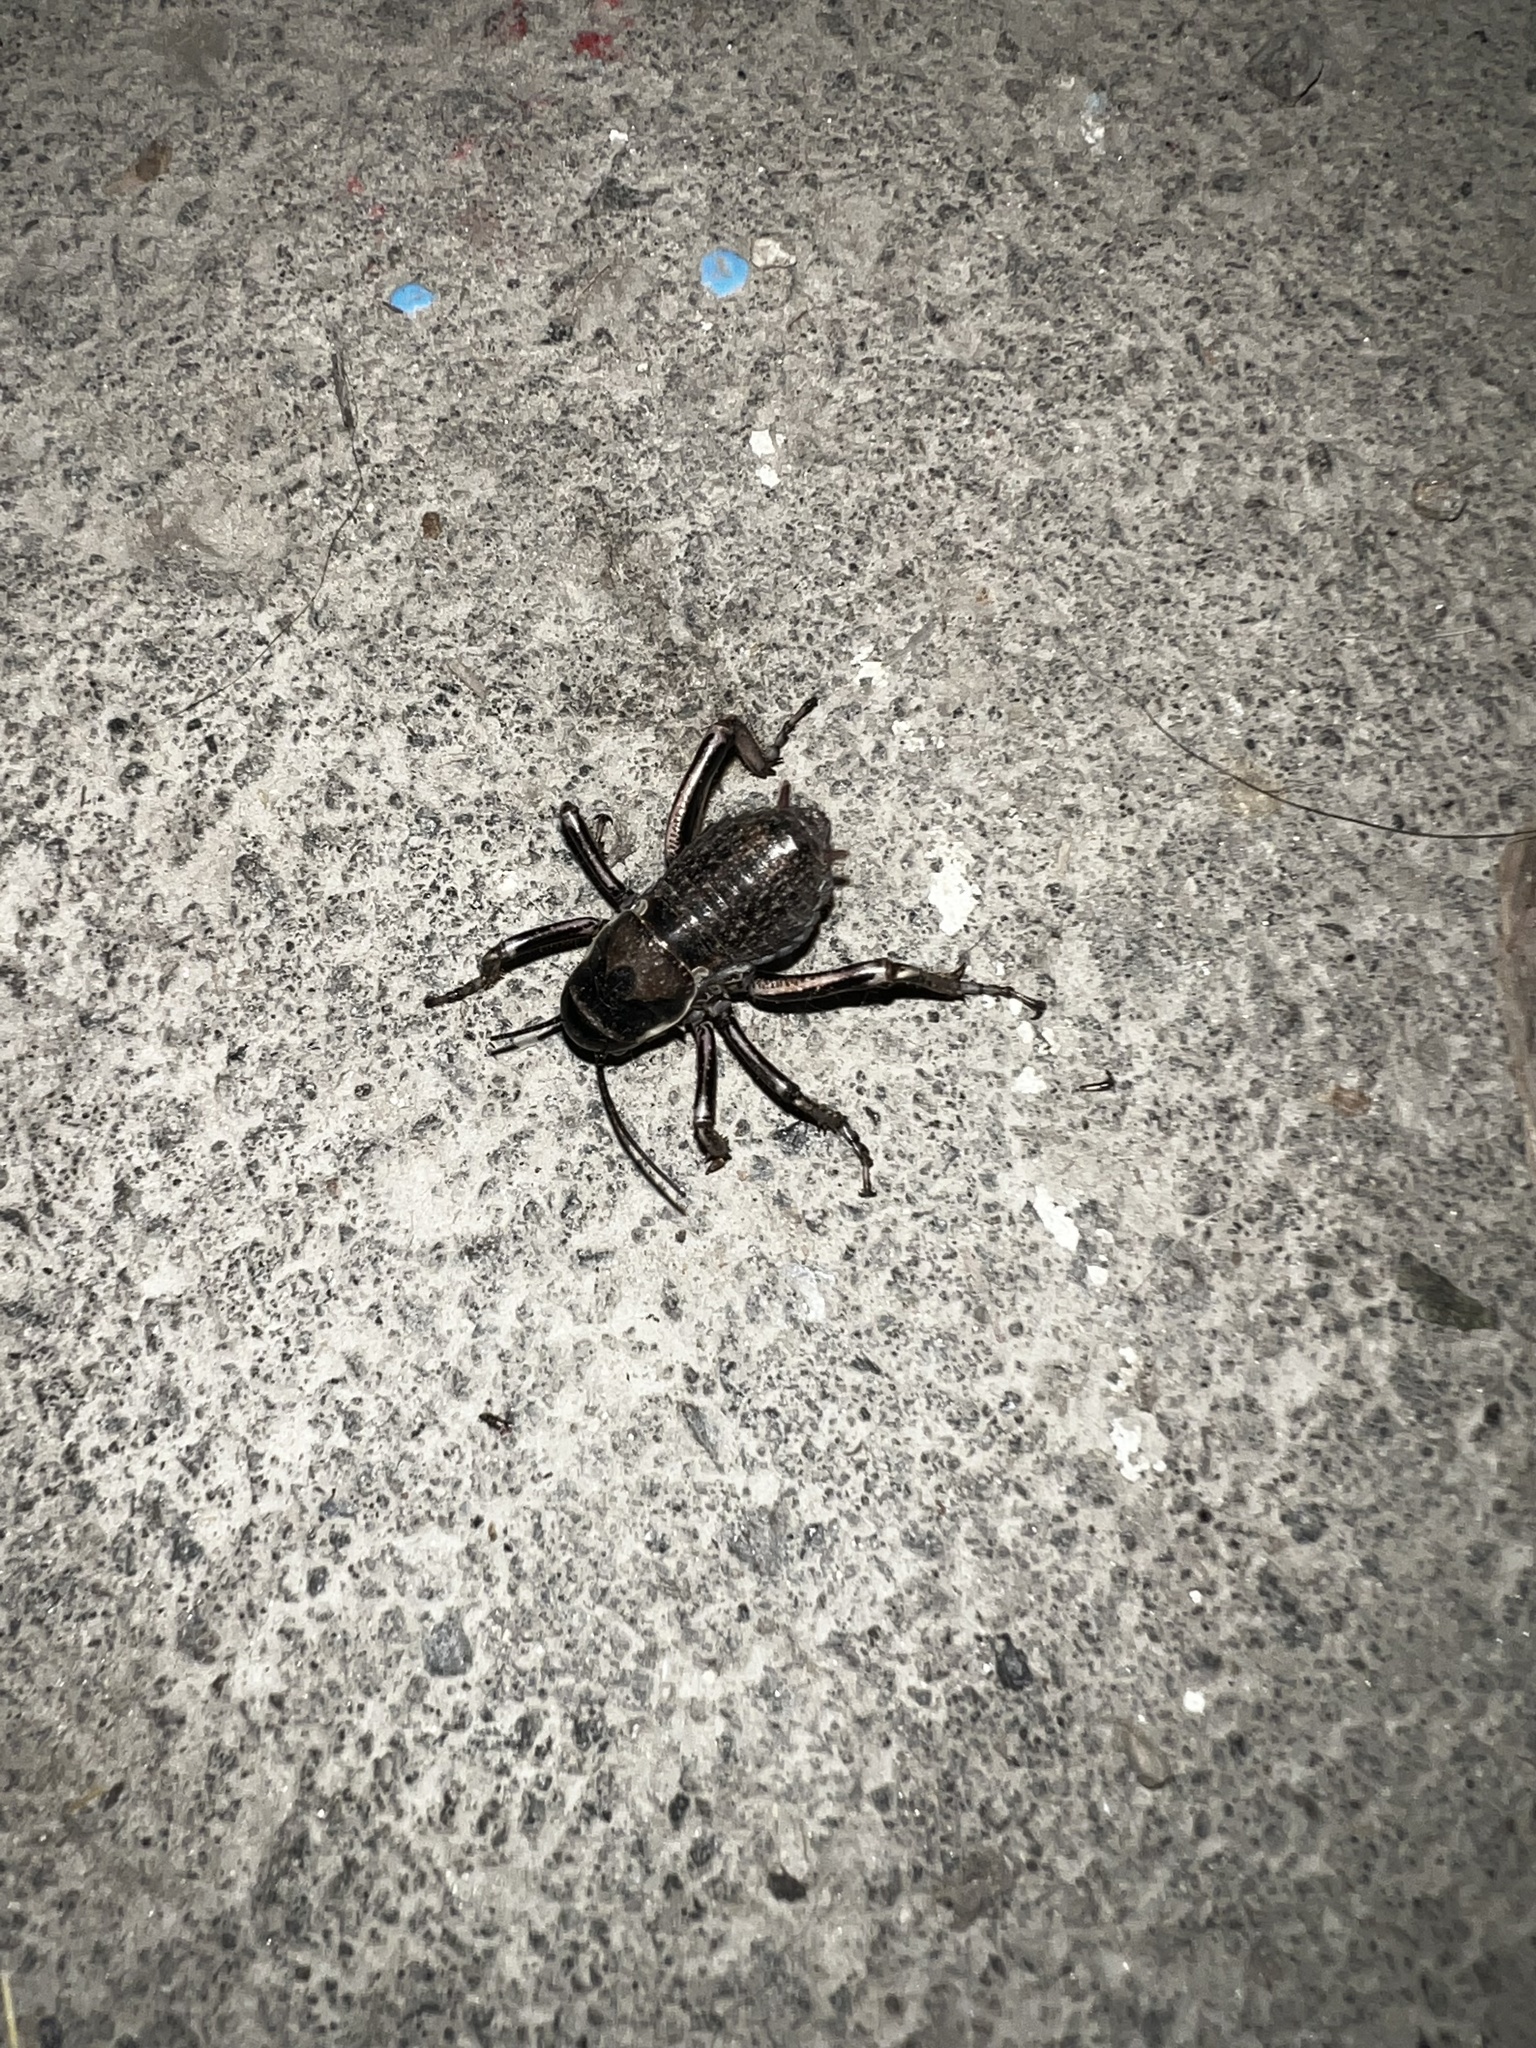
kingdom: Animalia
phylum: Arthropoda
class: Insecta
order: Orthoptera
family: Prophalangopsidae
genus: Cyphoderris
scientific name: Cyphoderris monstrosa
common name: Great grig
